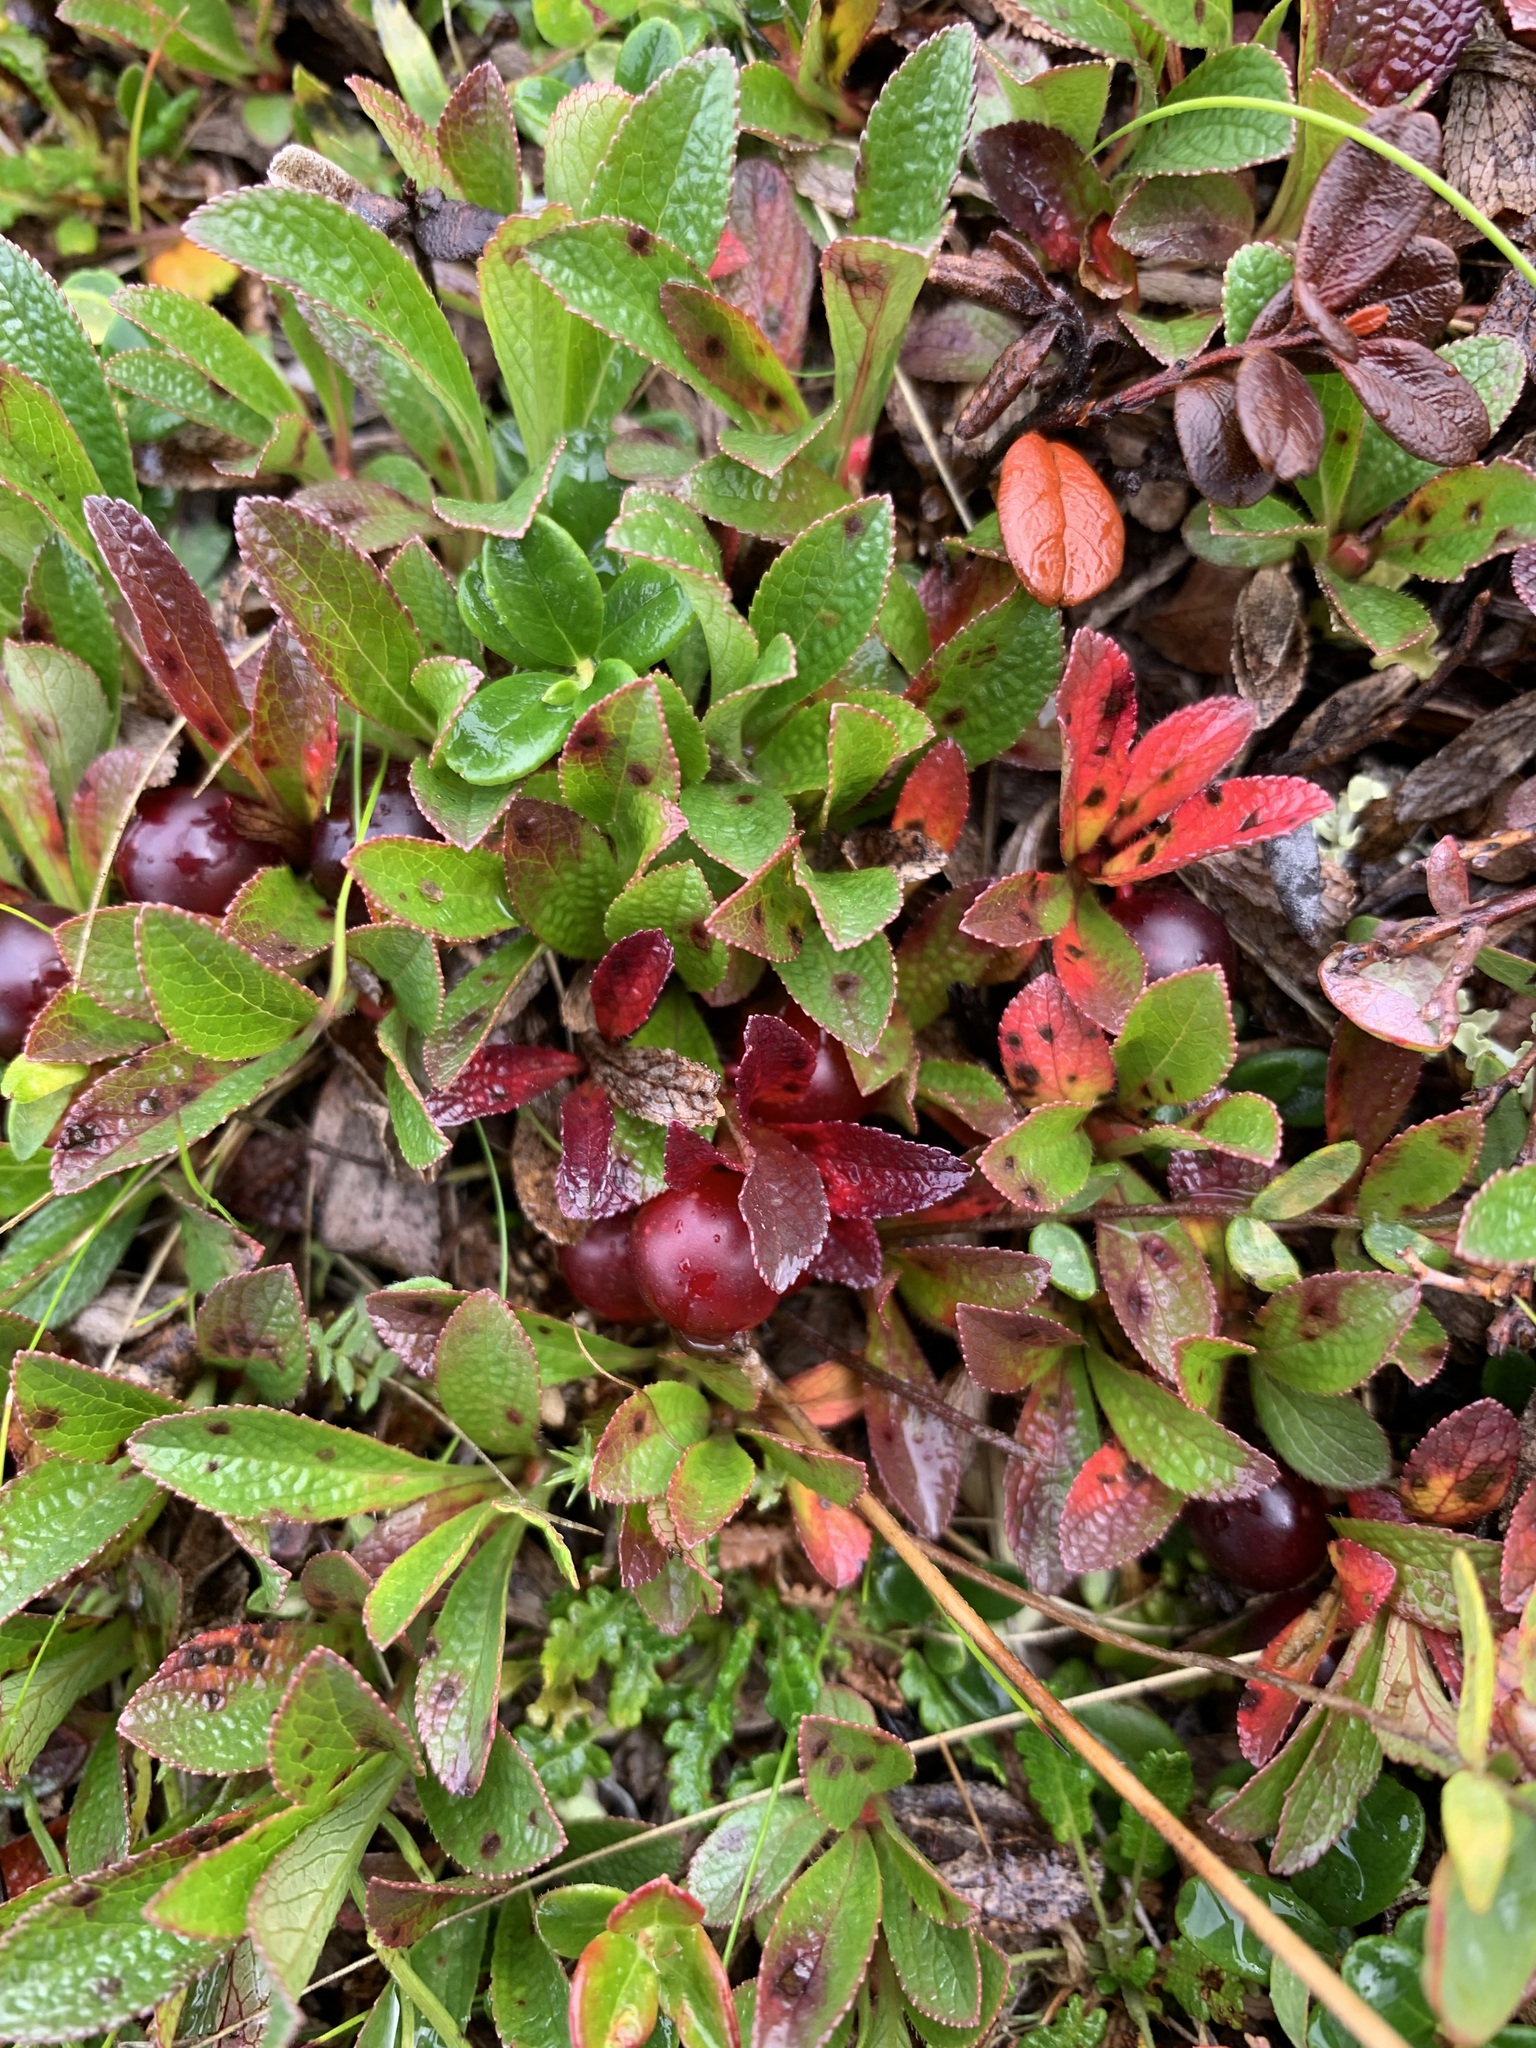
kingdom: Plantae
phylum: Tracheophyta
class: Magnoliopsida
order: Ericales
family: Ericaceae
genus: Arctostaphylos
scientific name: Arctostaphylos alpinus
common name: Alpine bearberry
